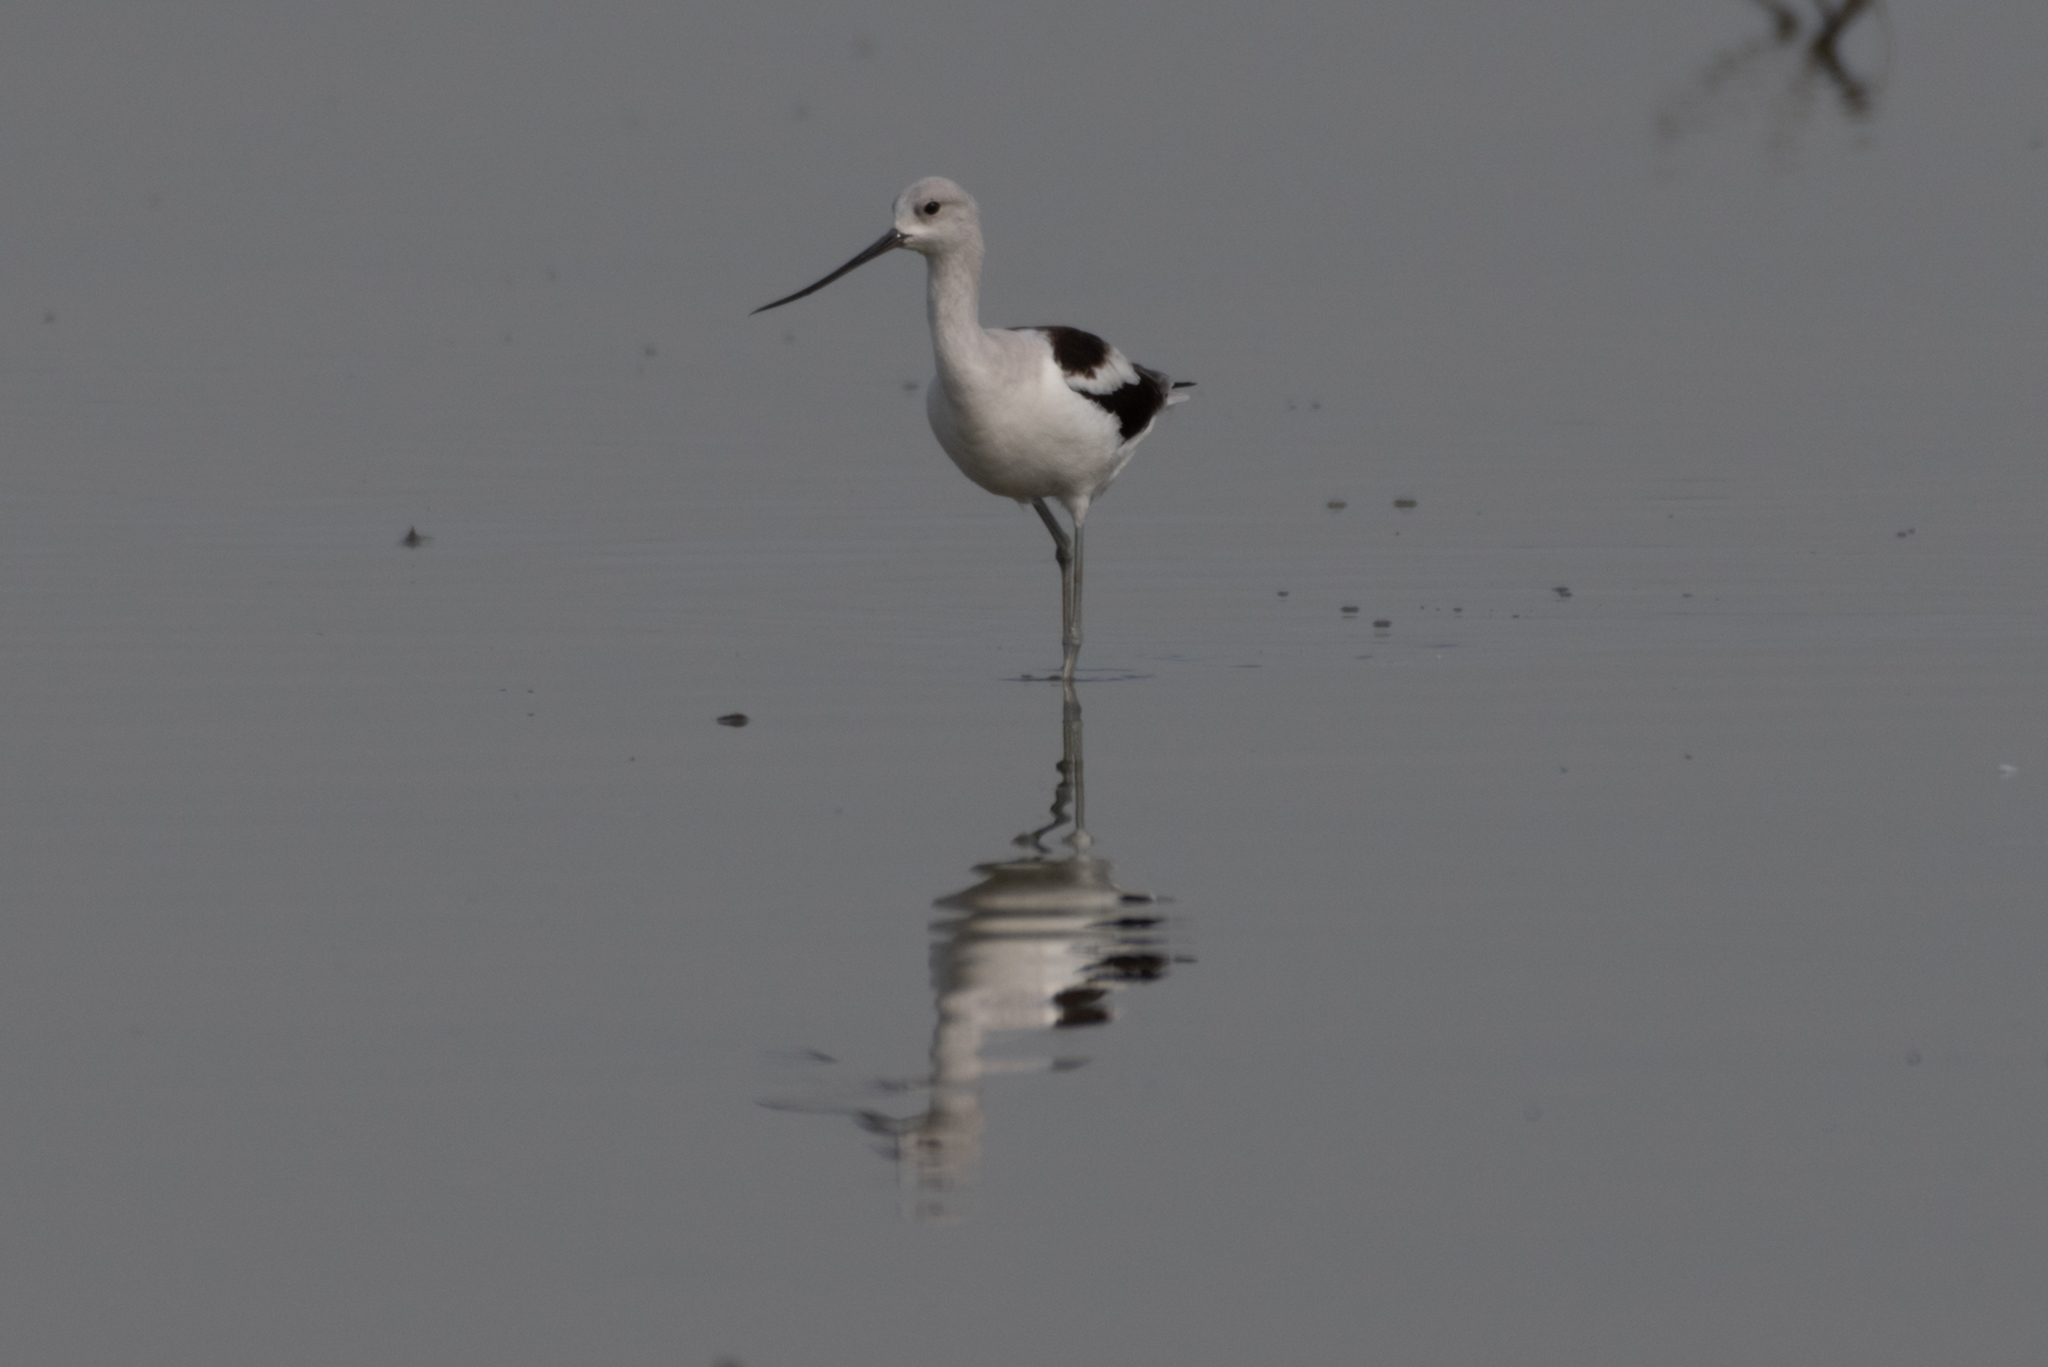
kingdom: Animalia
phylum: Chordata
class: Aves
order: Charadriiformes
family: Recurvirostridae
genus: Recurvirostra
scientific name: Recurvirostra americana
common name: American avocet
